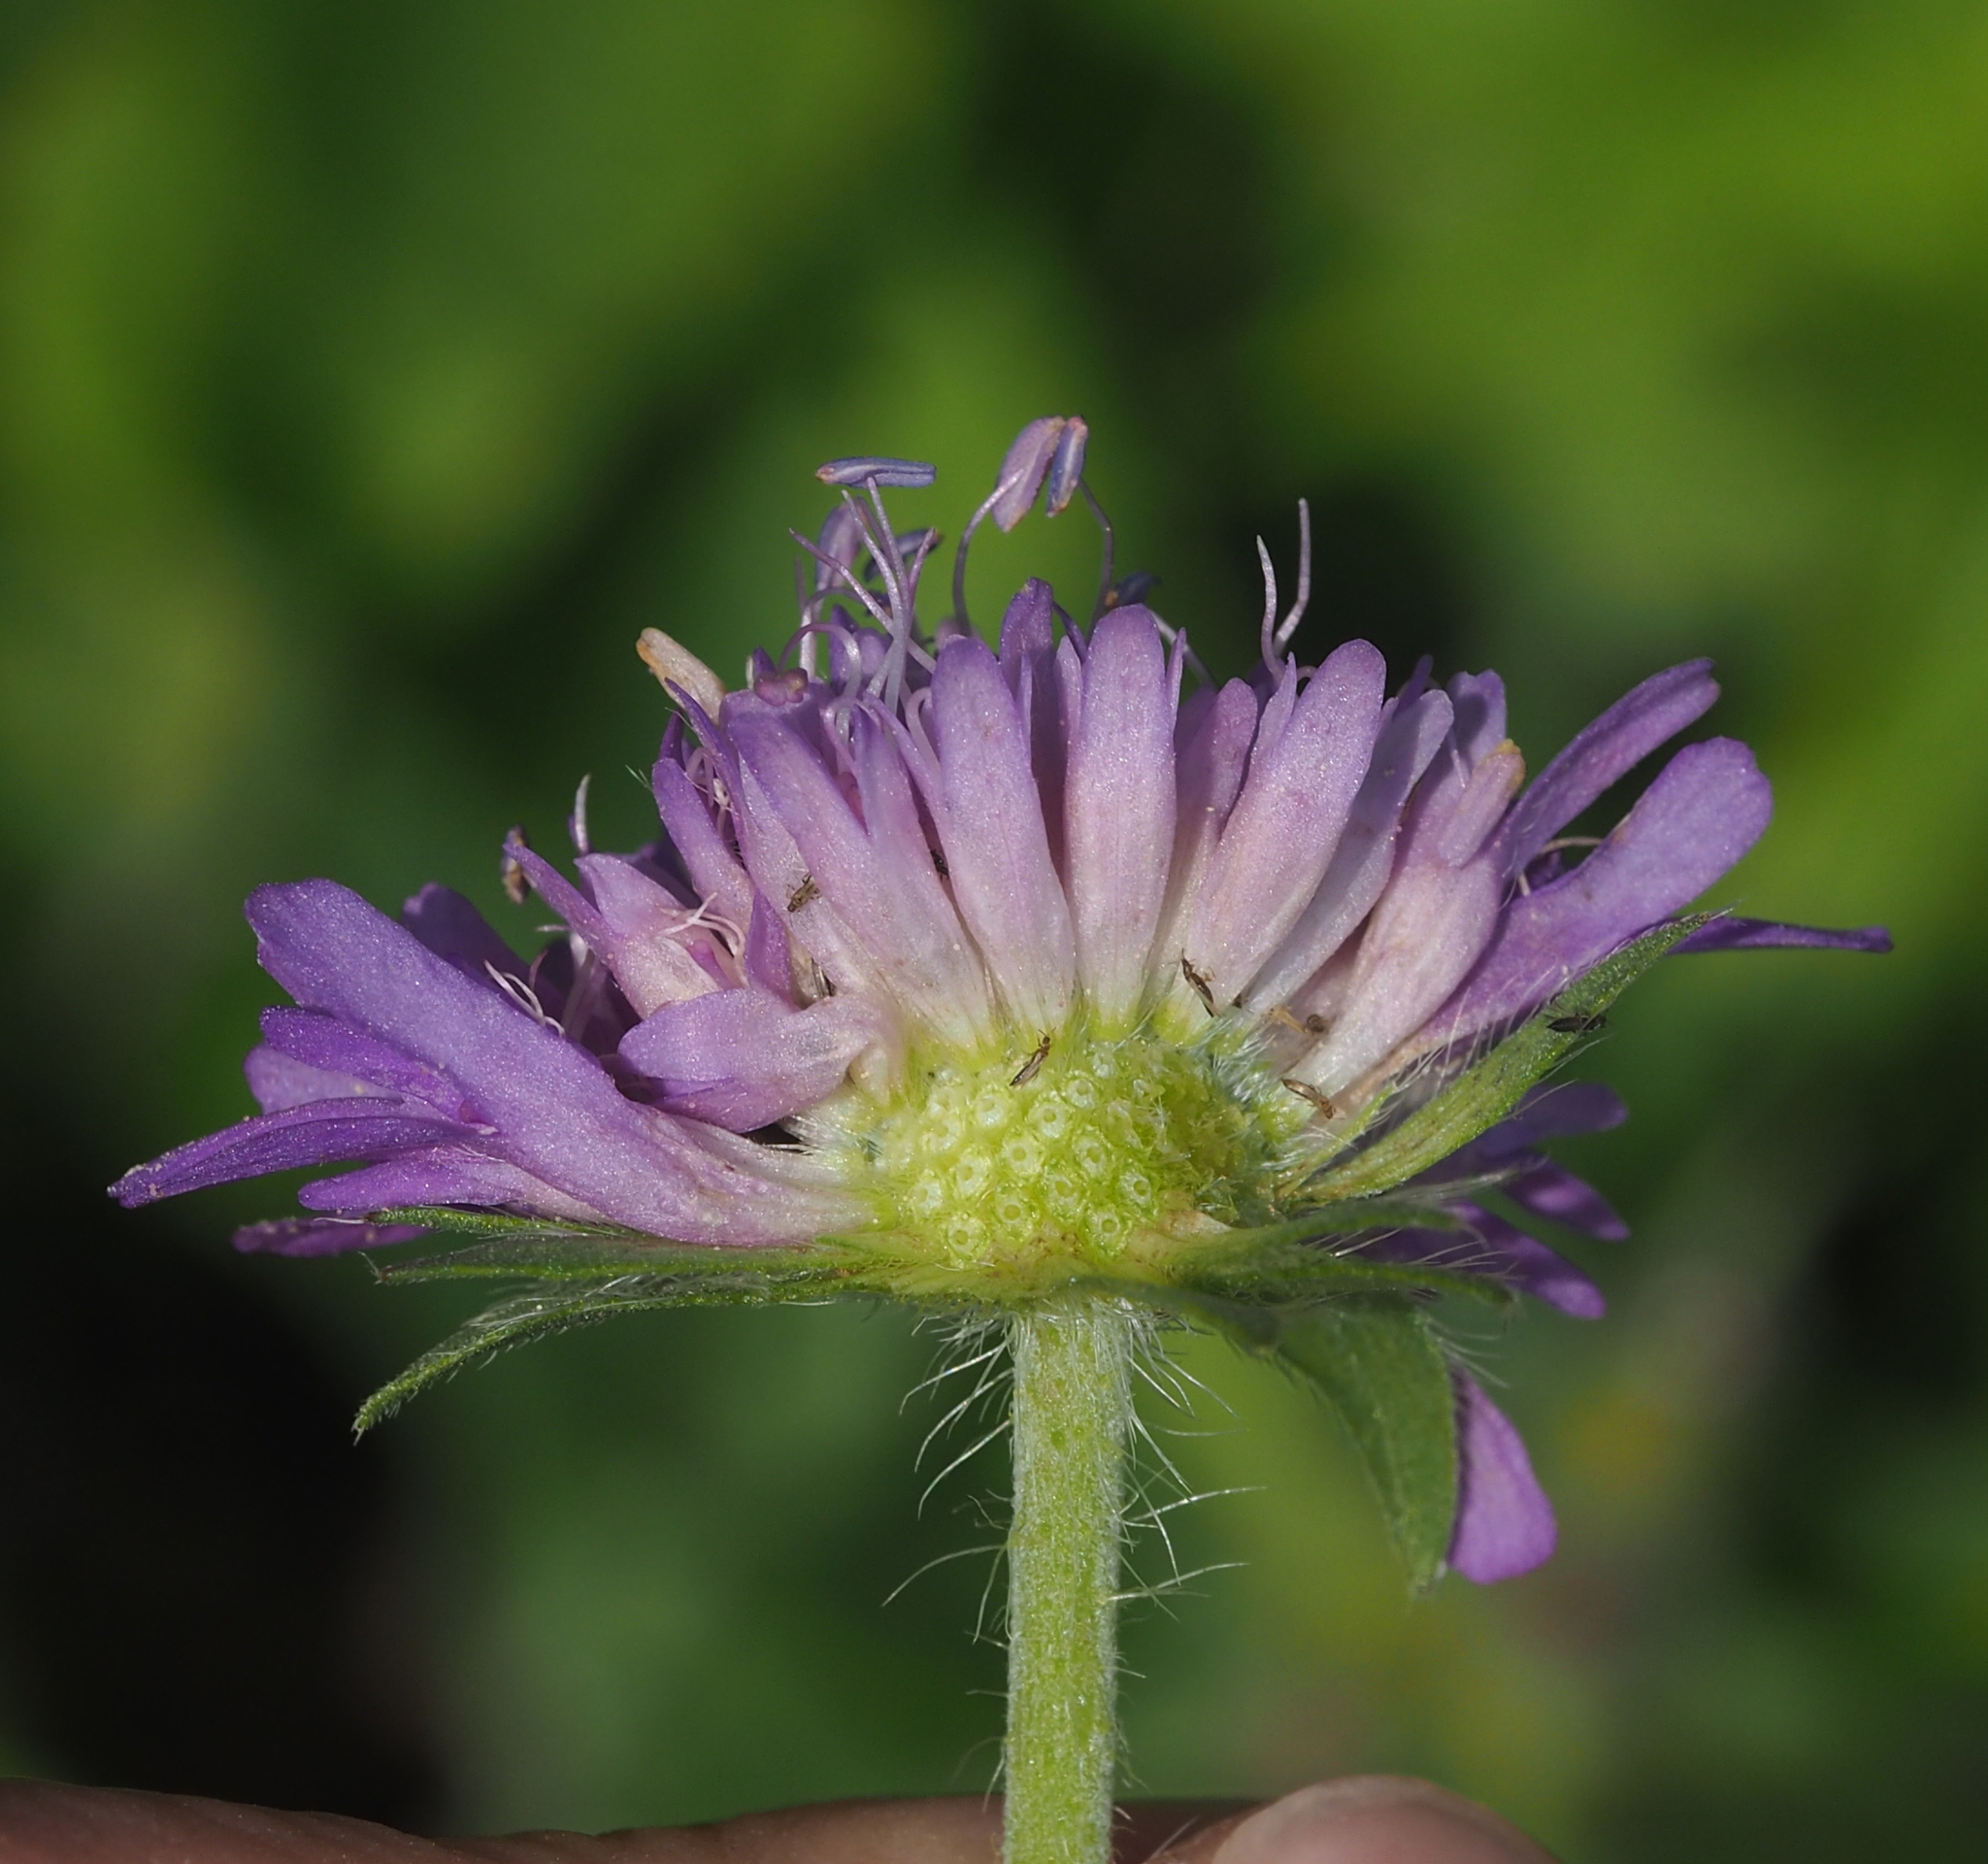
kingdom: Plantae
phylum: Tracheophyta
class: Magnoliopsida
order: Dipsacales
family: Caprifoliaceae
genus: Knautia
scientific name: Knautia dipsacifolia
